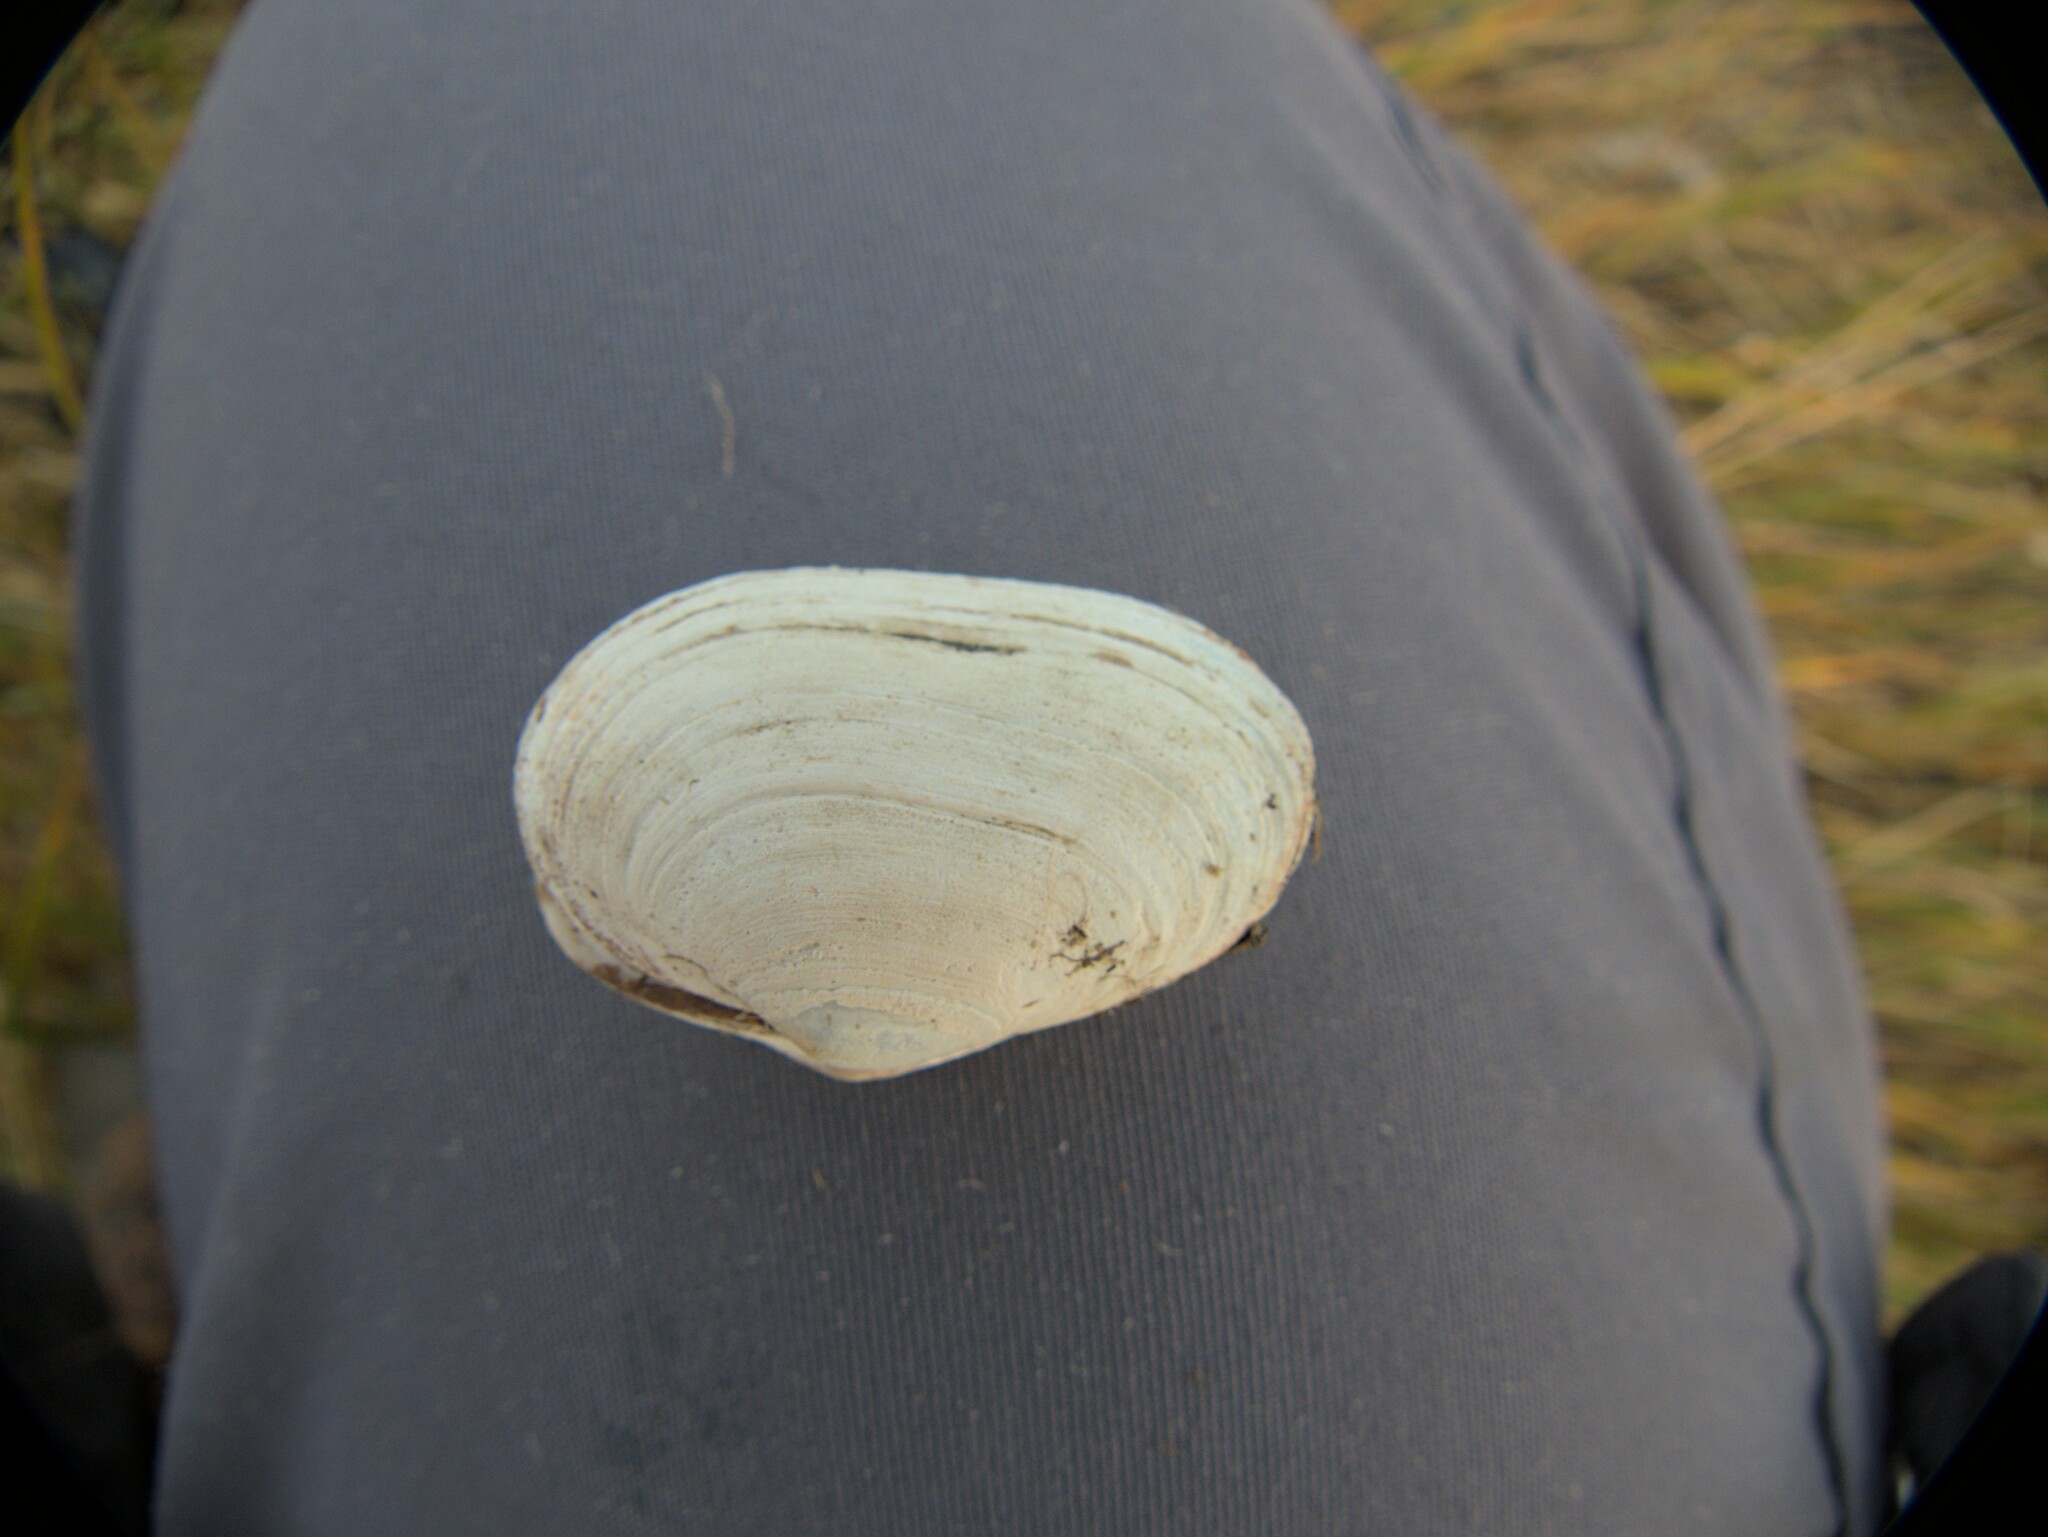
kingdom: Animalia
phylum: Mollusca
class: Bivalvia
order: Myida
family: Myidae
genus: Mya
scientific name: Mya arenaria
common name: Soft-shelled clam
